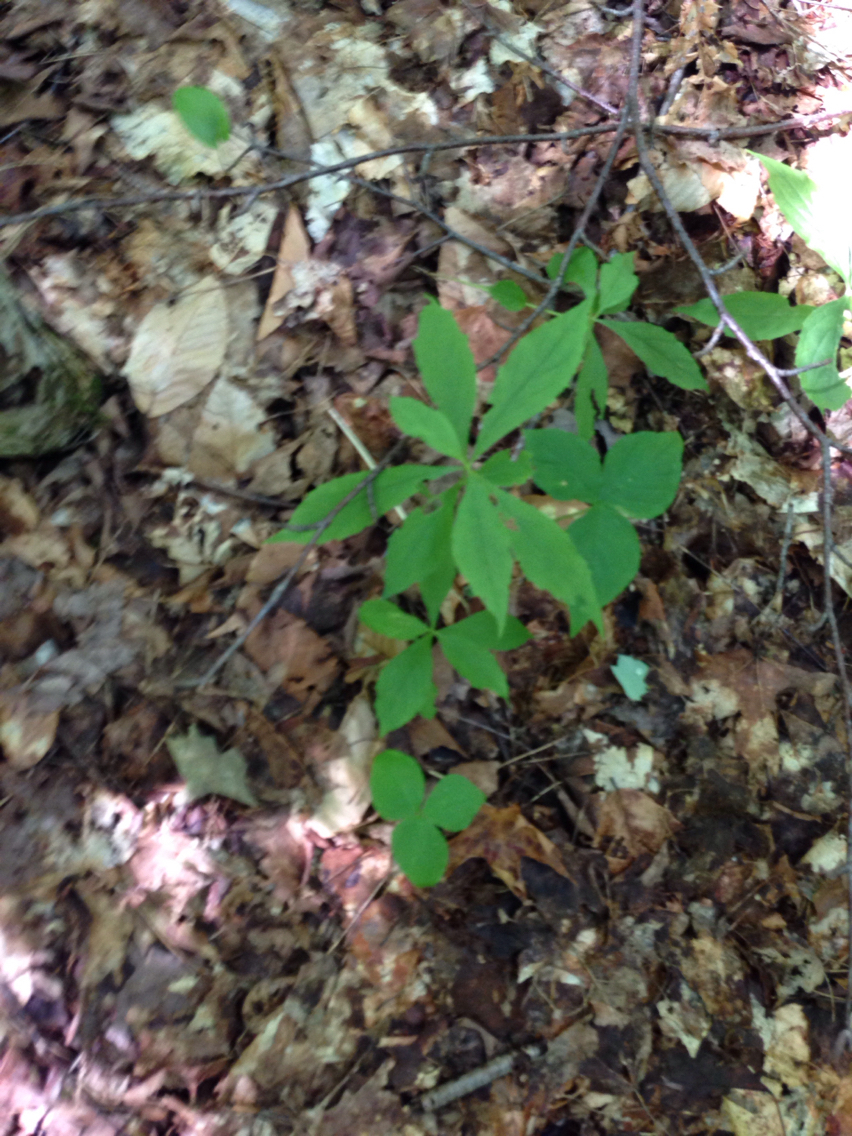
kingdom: Plantae
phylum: Tracheophyta
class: Magnoliopsida
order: Asterales
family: Asteraceae
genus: Oclemena
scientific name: Oclemena acuminata
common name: Mountain aster
